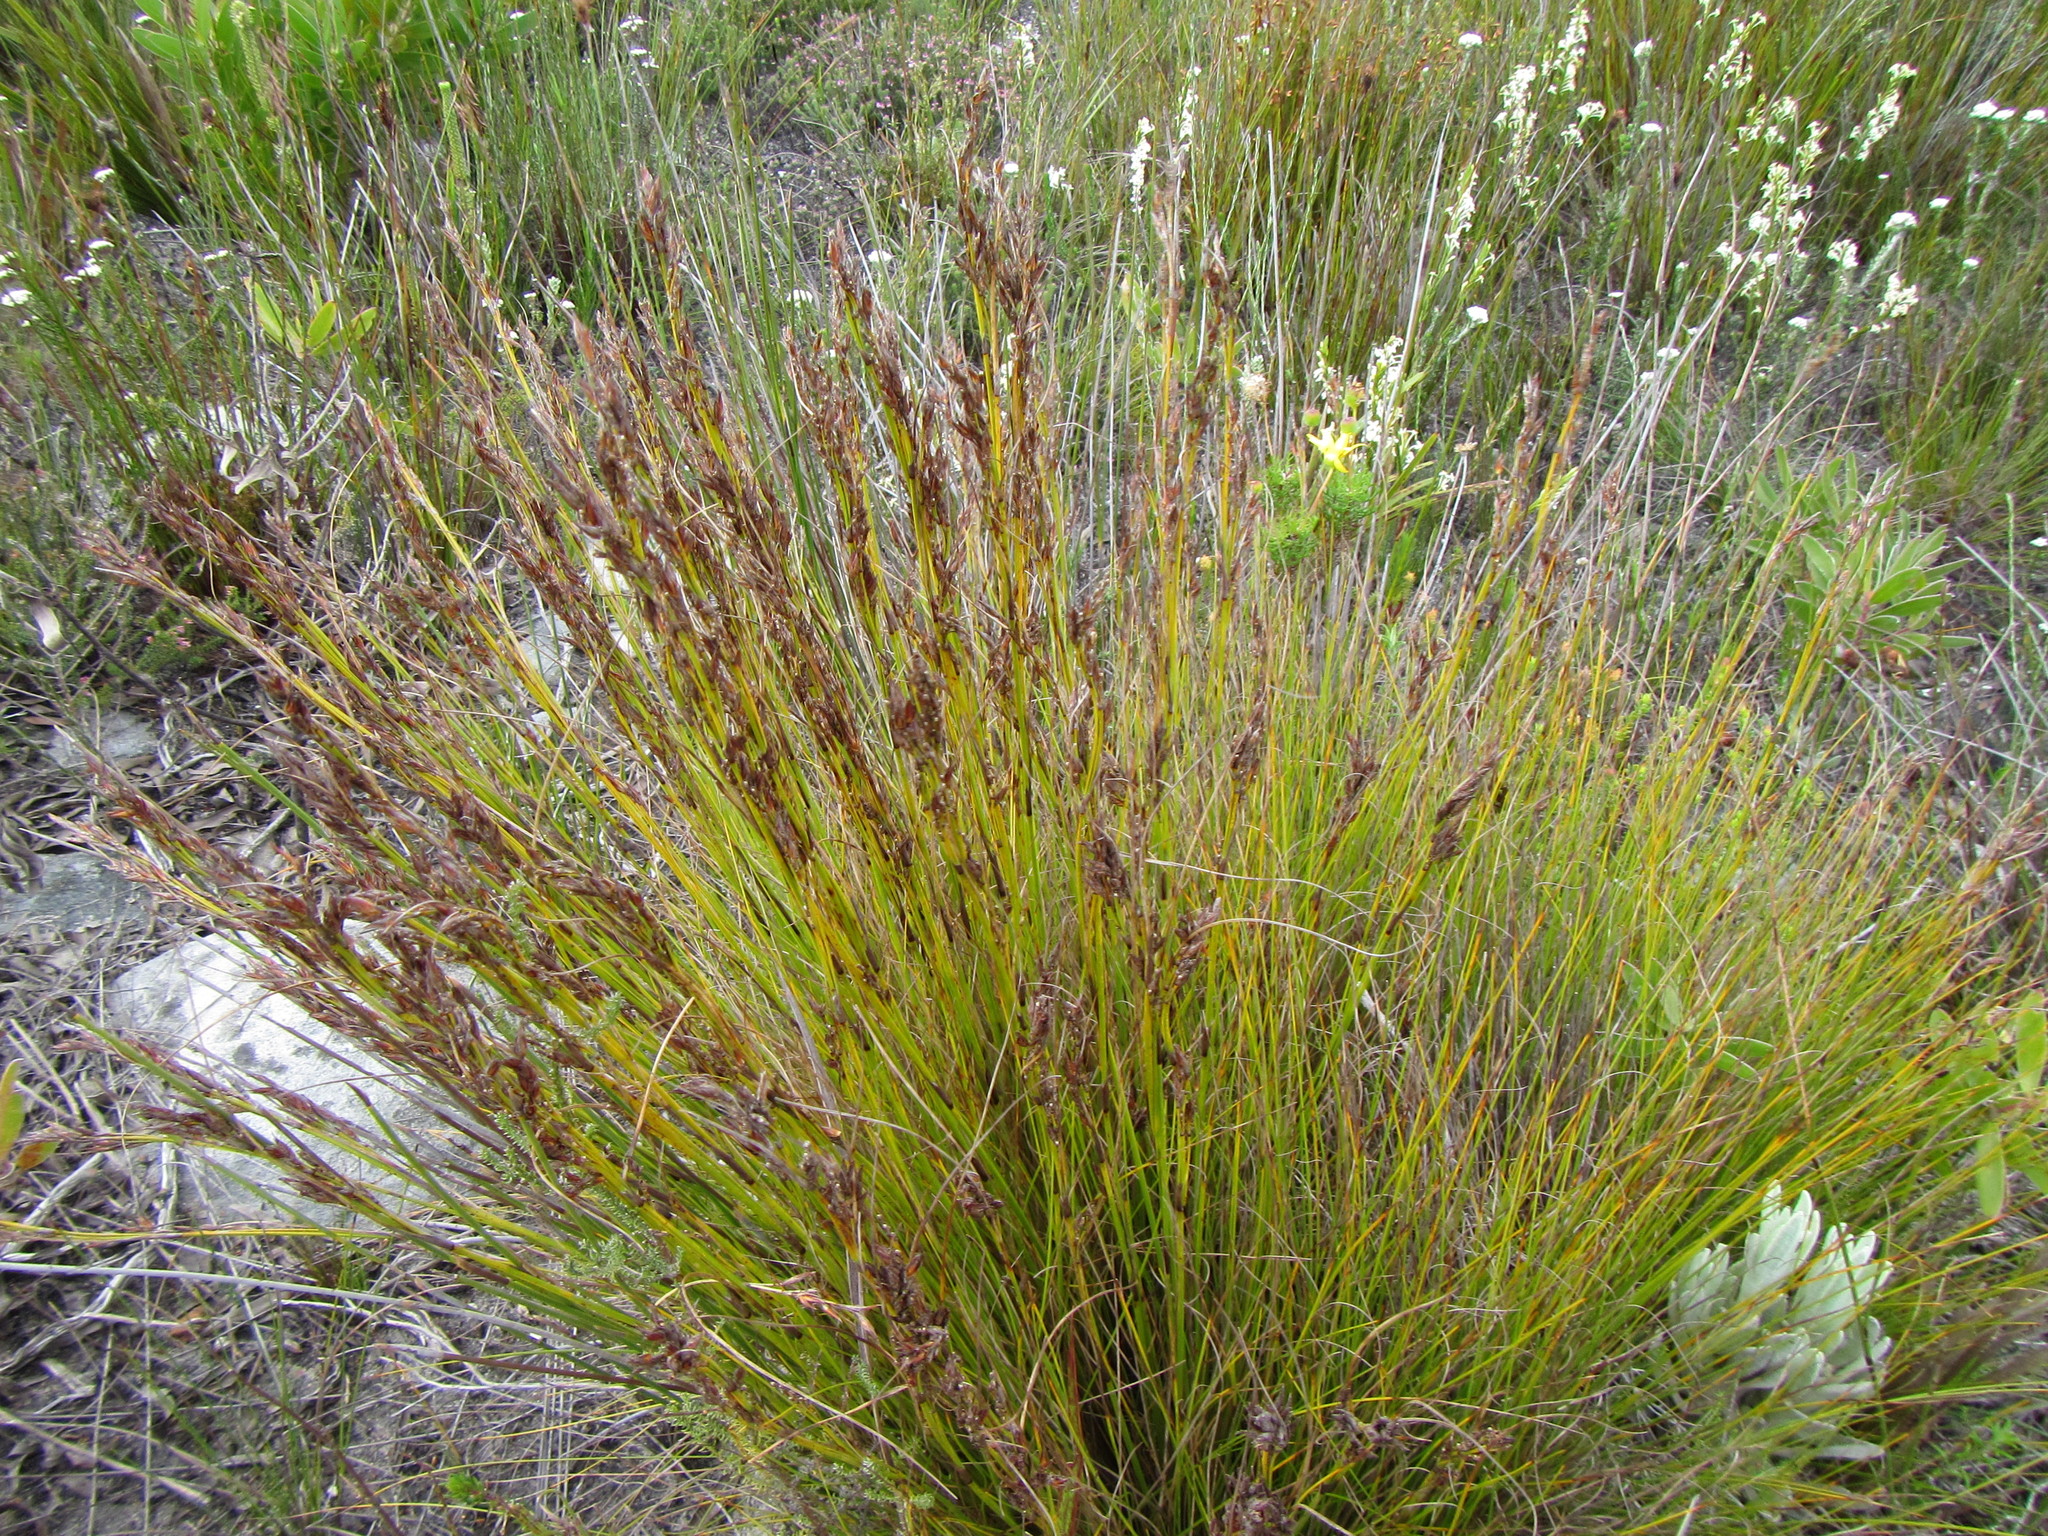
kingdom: Plantae
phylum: Tracheophyta
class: Liliopsida
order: Poales
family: Cyperaceae
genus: Tetraria
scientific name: Tetraria fasciata
